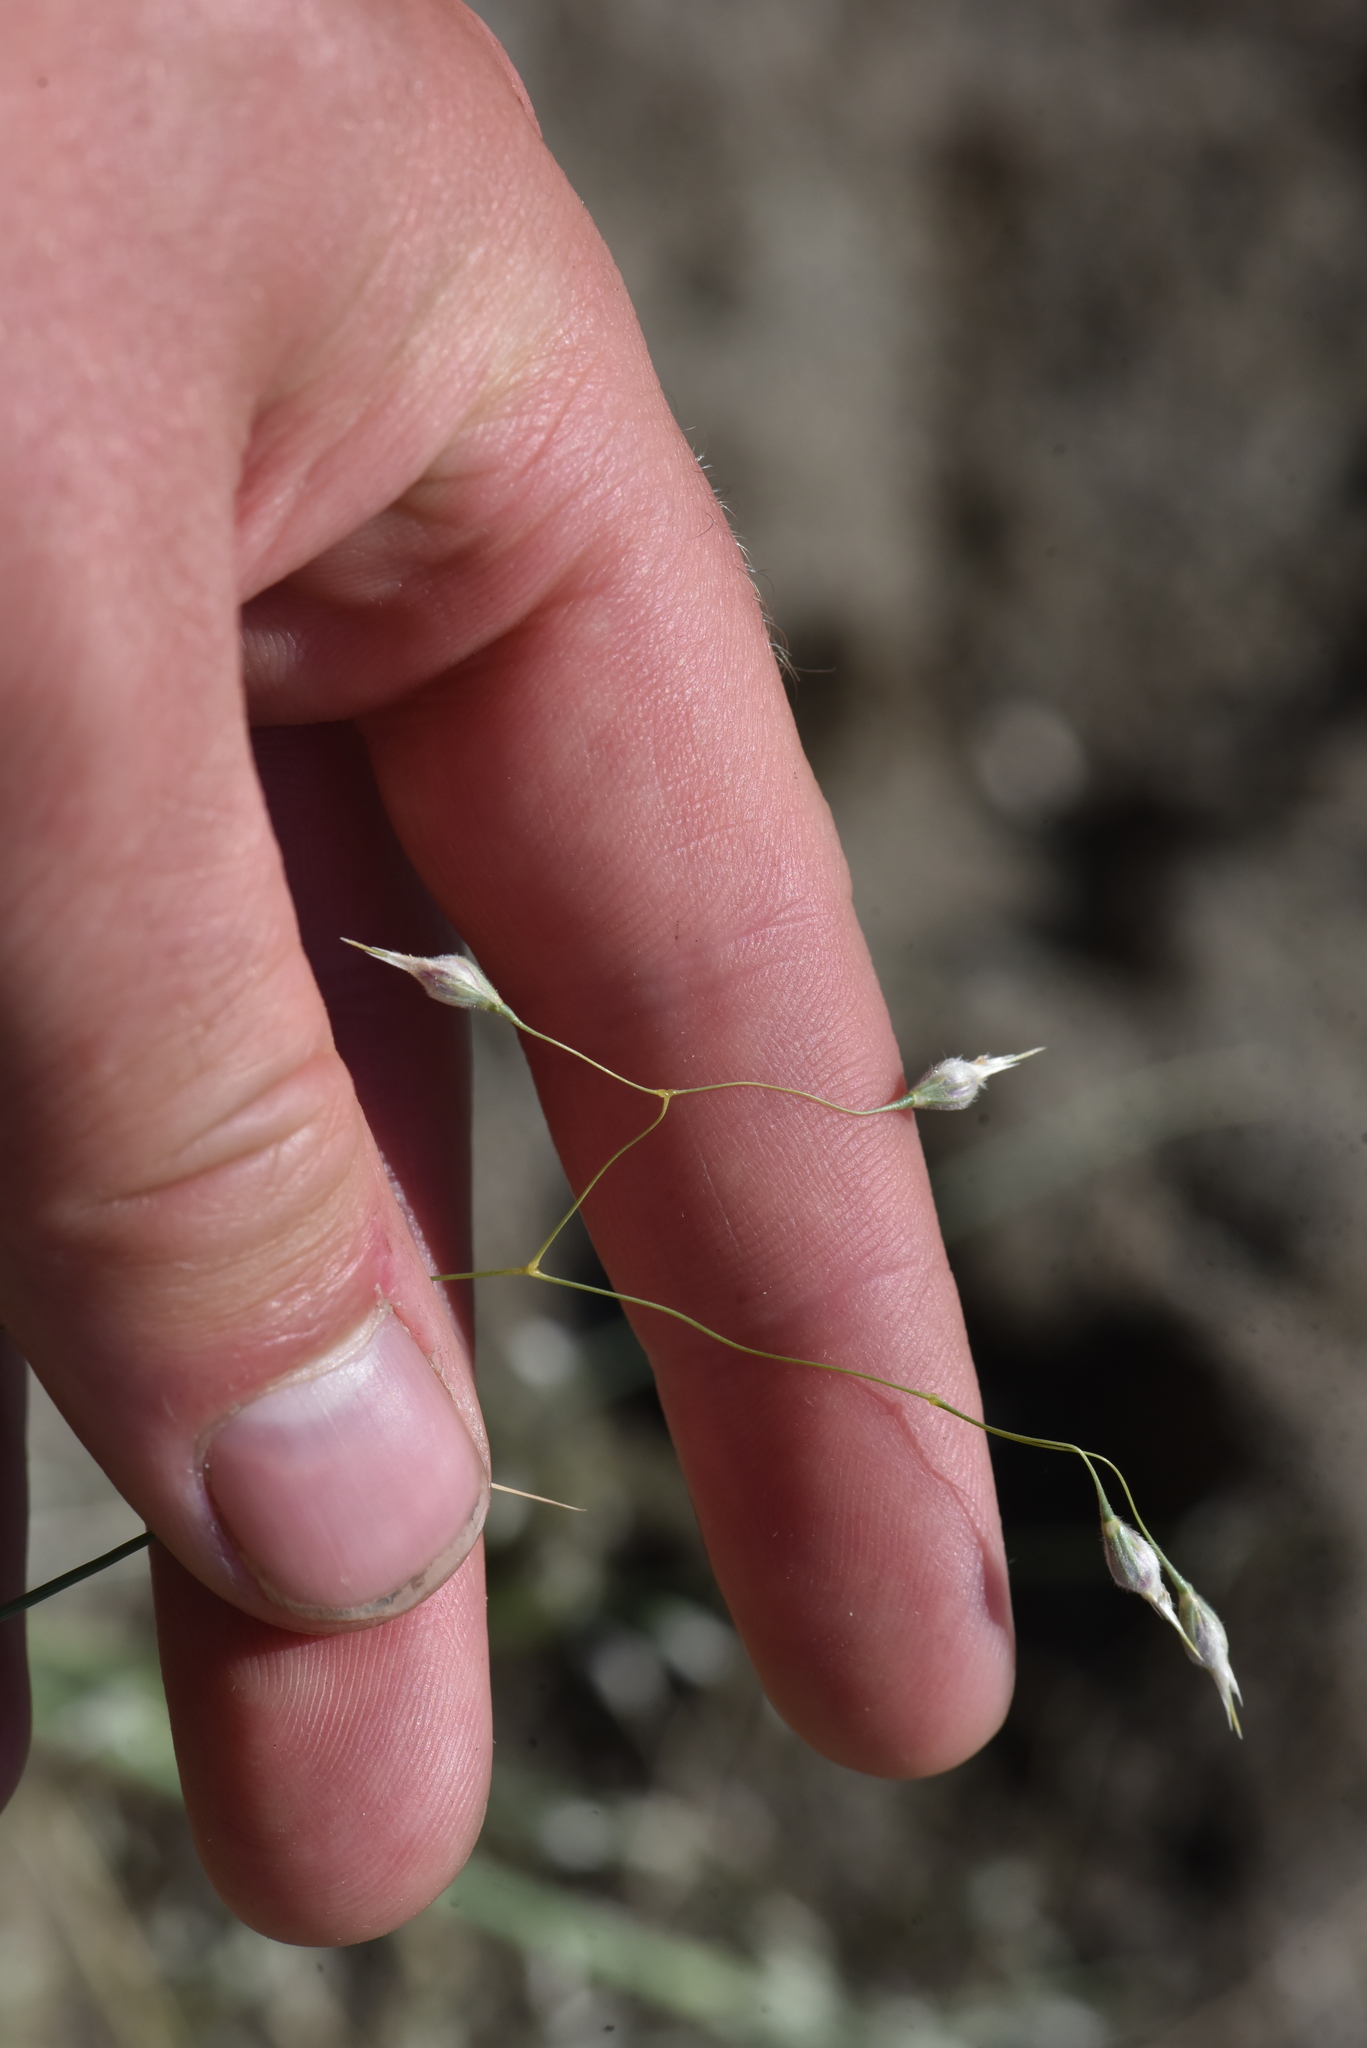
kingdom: Plantae
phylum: Tracheophyta
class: Liliopsida
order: Poales
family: Poaceae
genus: Eriocoma
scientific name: Eriocoma hymenoides
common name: Indian mountain ricegrass
